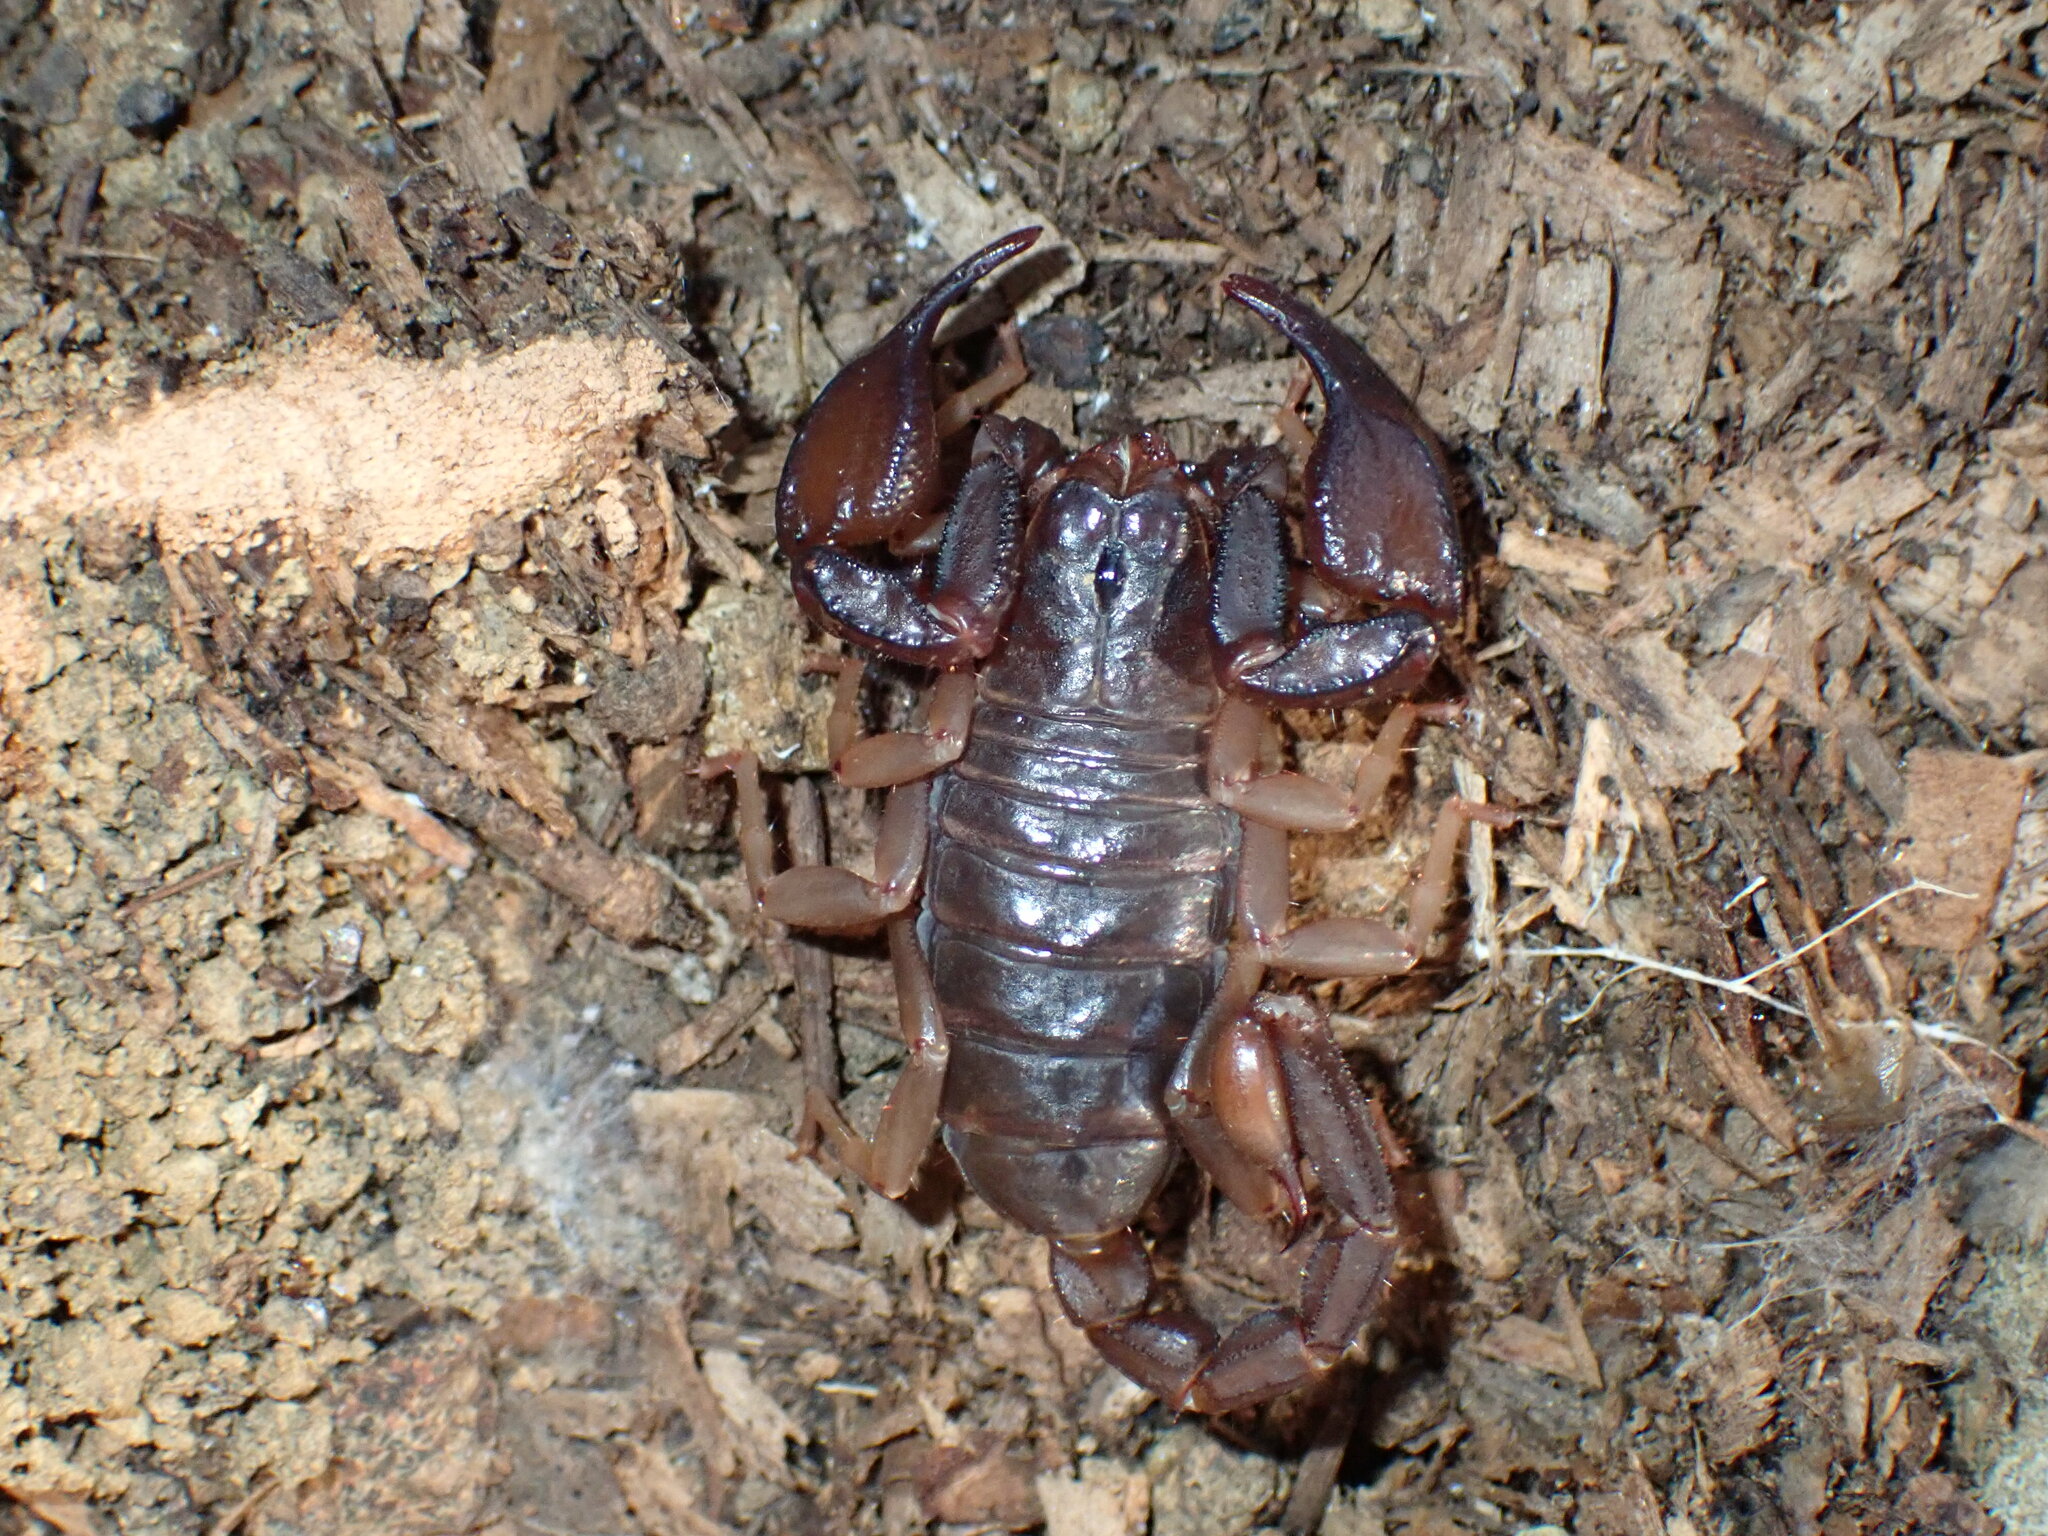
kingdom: Animalia
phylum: Arthropoda
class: Arachnida
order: Scorpiones
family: Chactidae
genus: Uroctonus
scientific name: Uroctonus mordax
